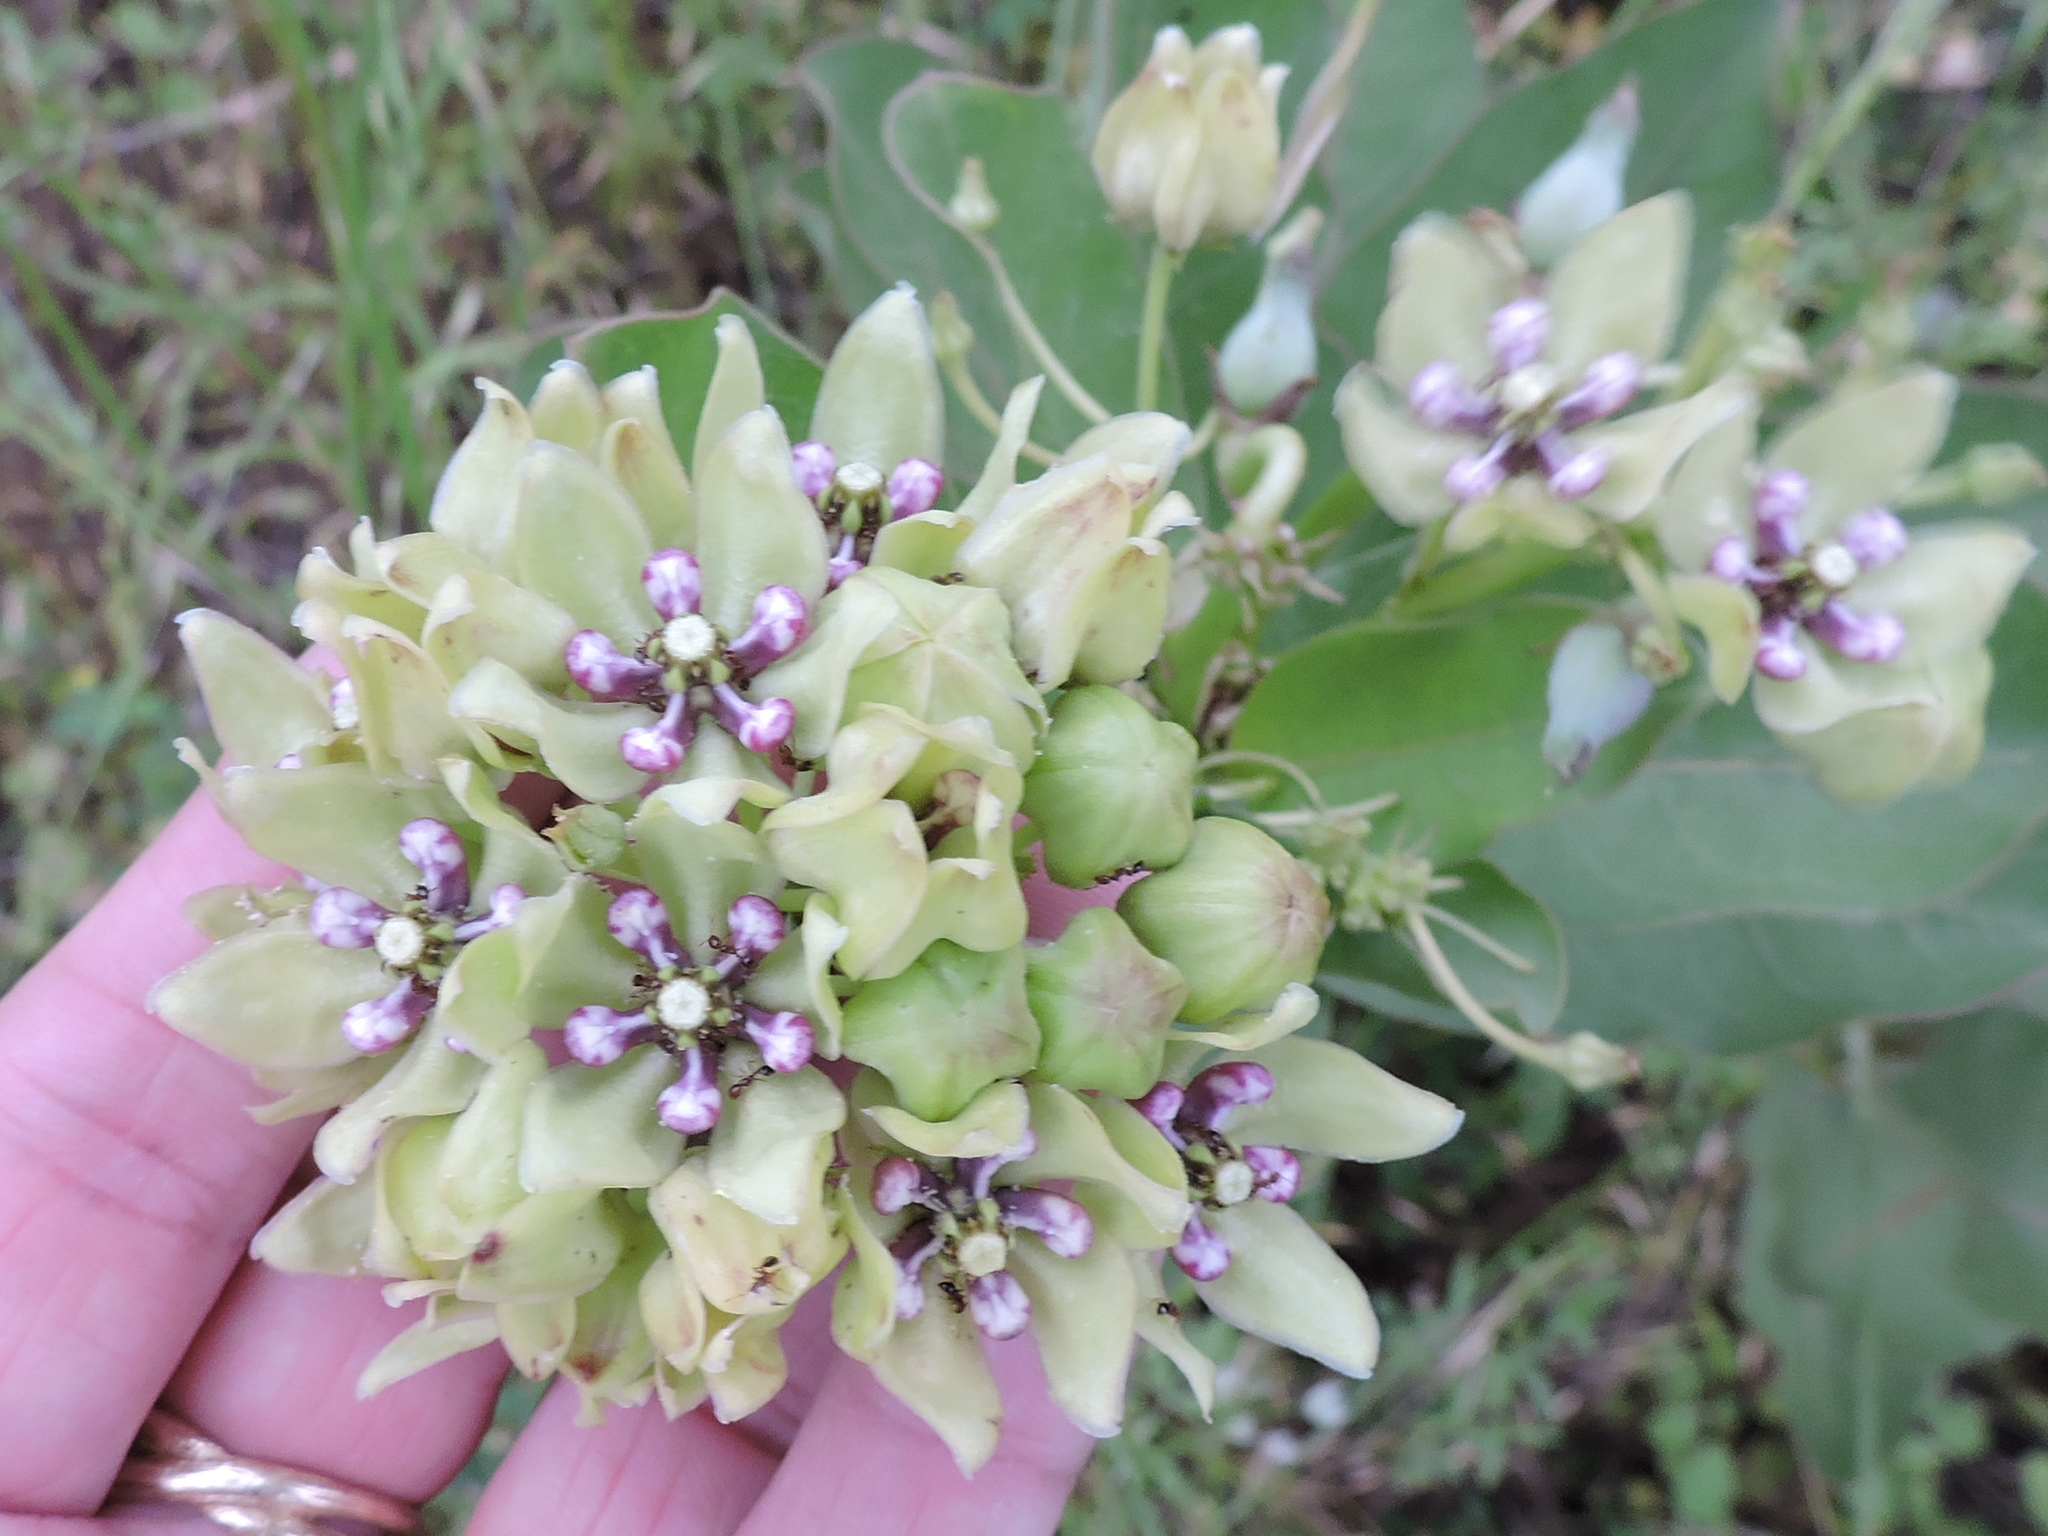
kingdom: Plantae
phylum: Tracheophyta
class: Magnoliopsida
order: Gentianales
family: Apocynaceae
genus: Asclepias
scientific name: Asclepias viridis
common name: Antelope-horns
